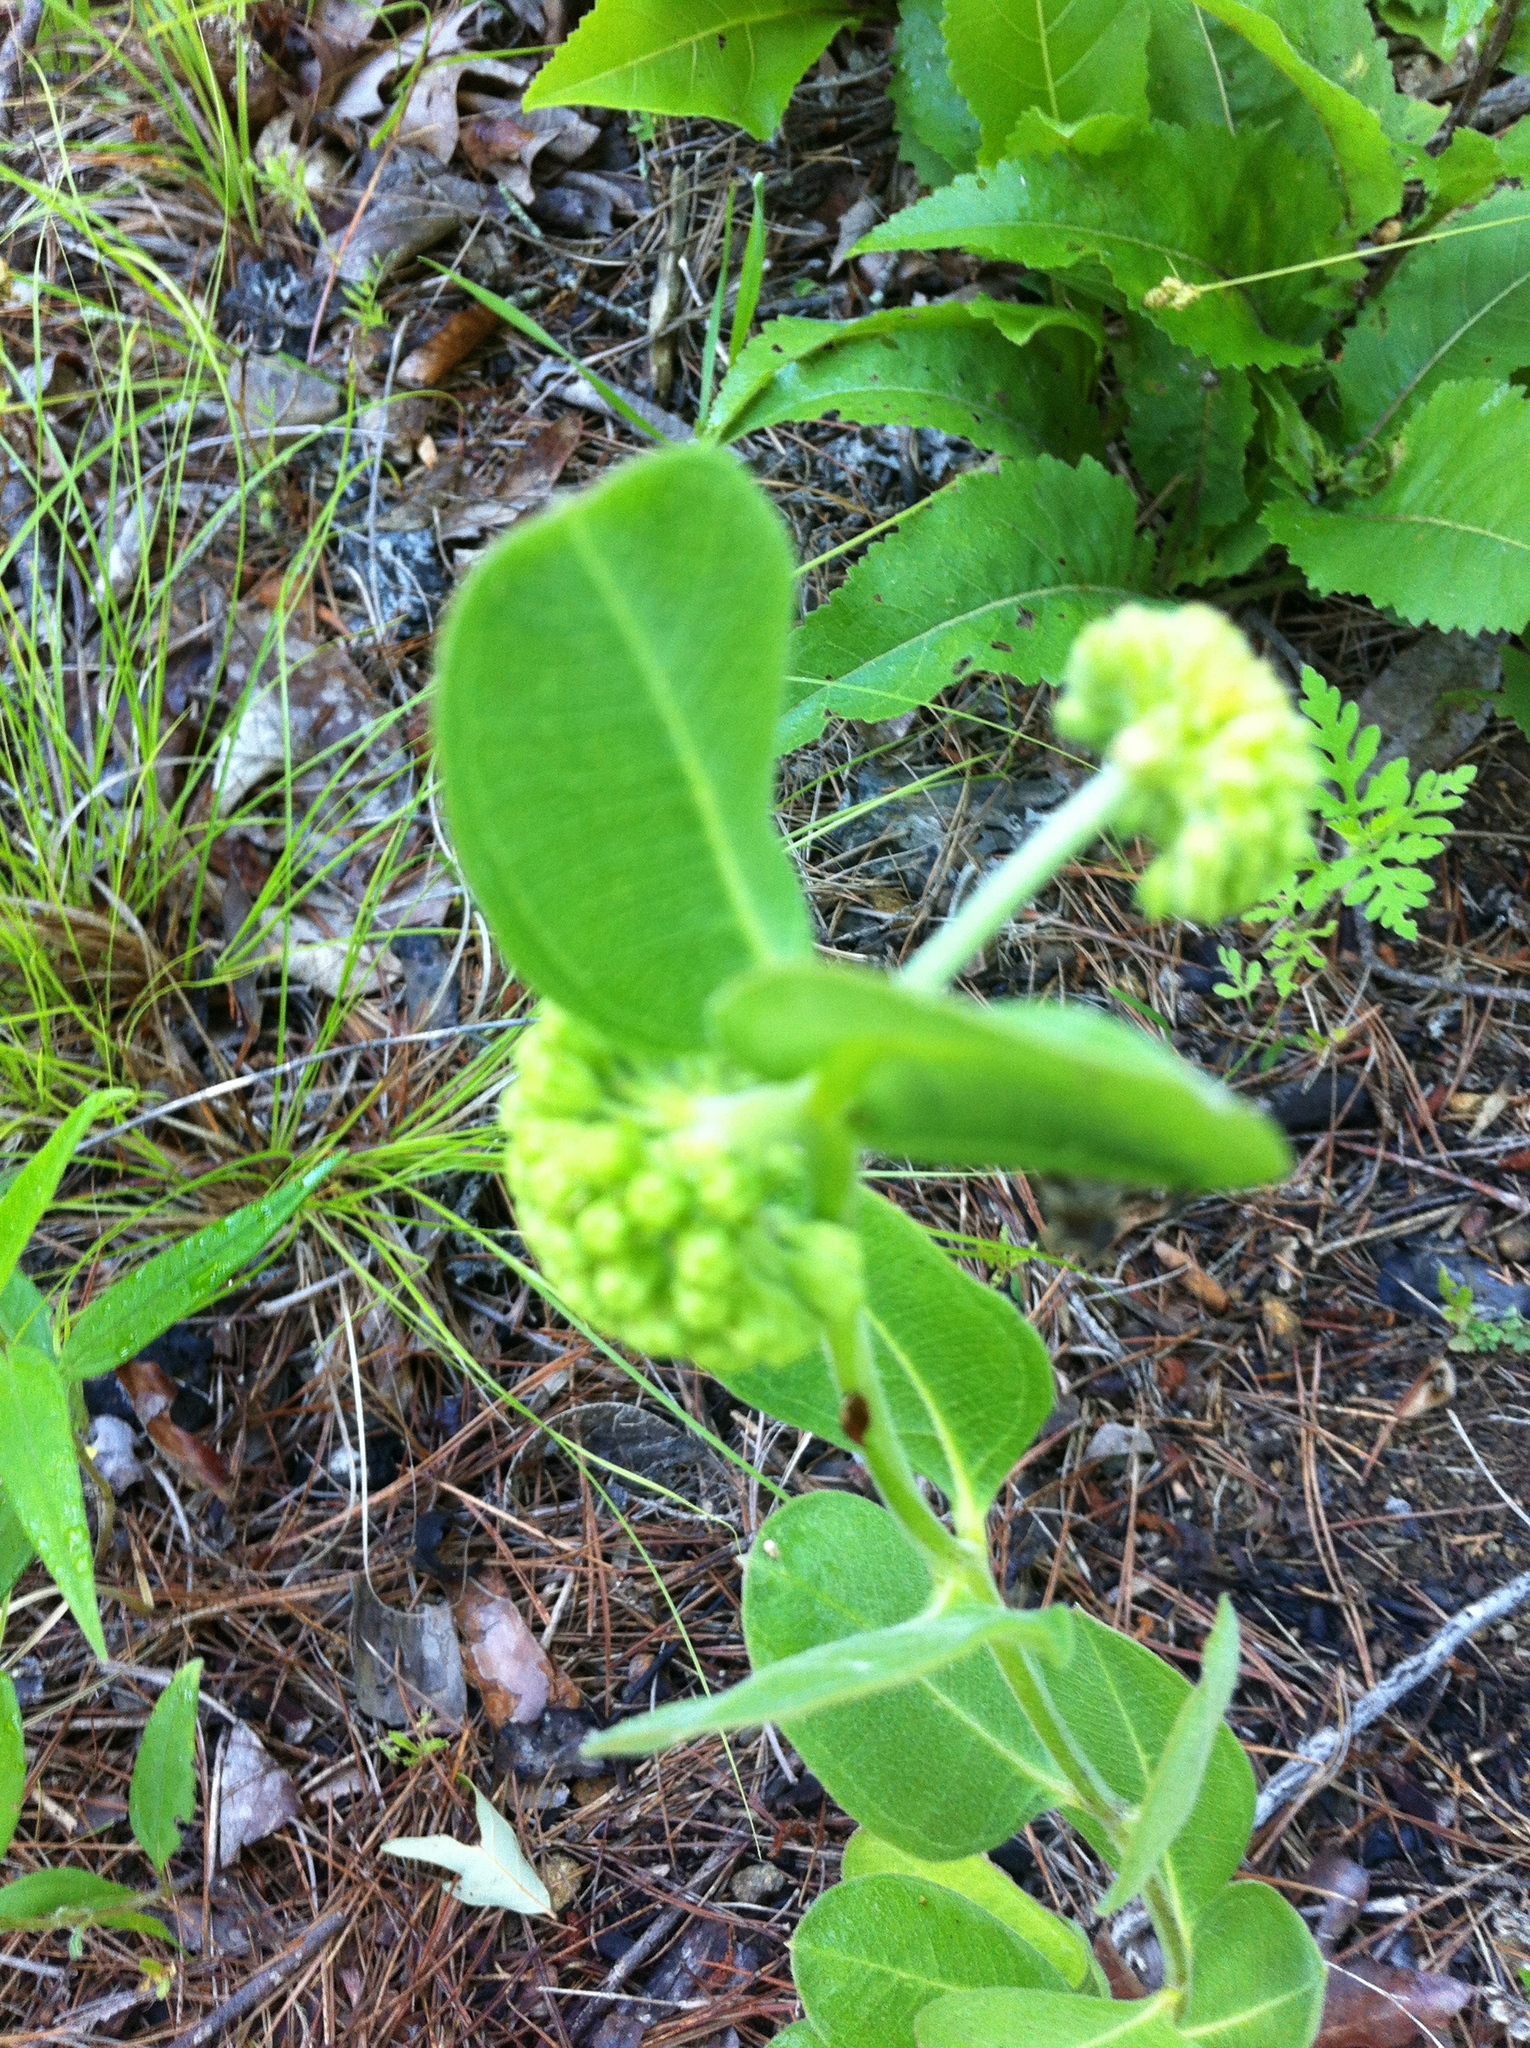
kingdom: Plantae
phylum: Tracheophyta
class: Magnoliopsida
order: Gentianales
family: Apocynaceae
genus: Asclepias
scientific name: Asclepias viridiflora
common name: Green comet milkweed
